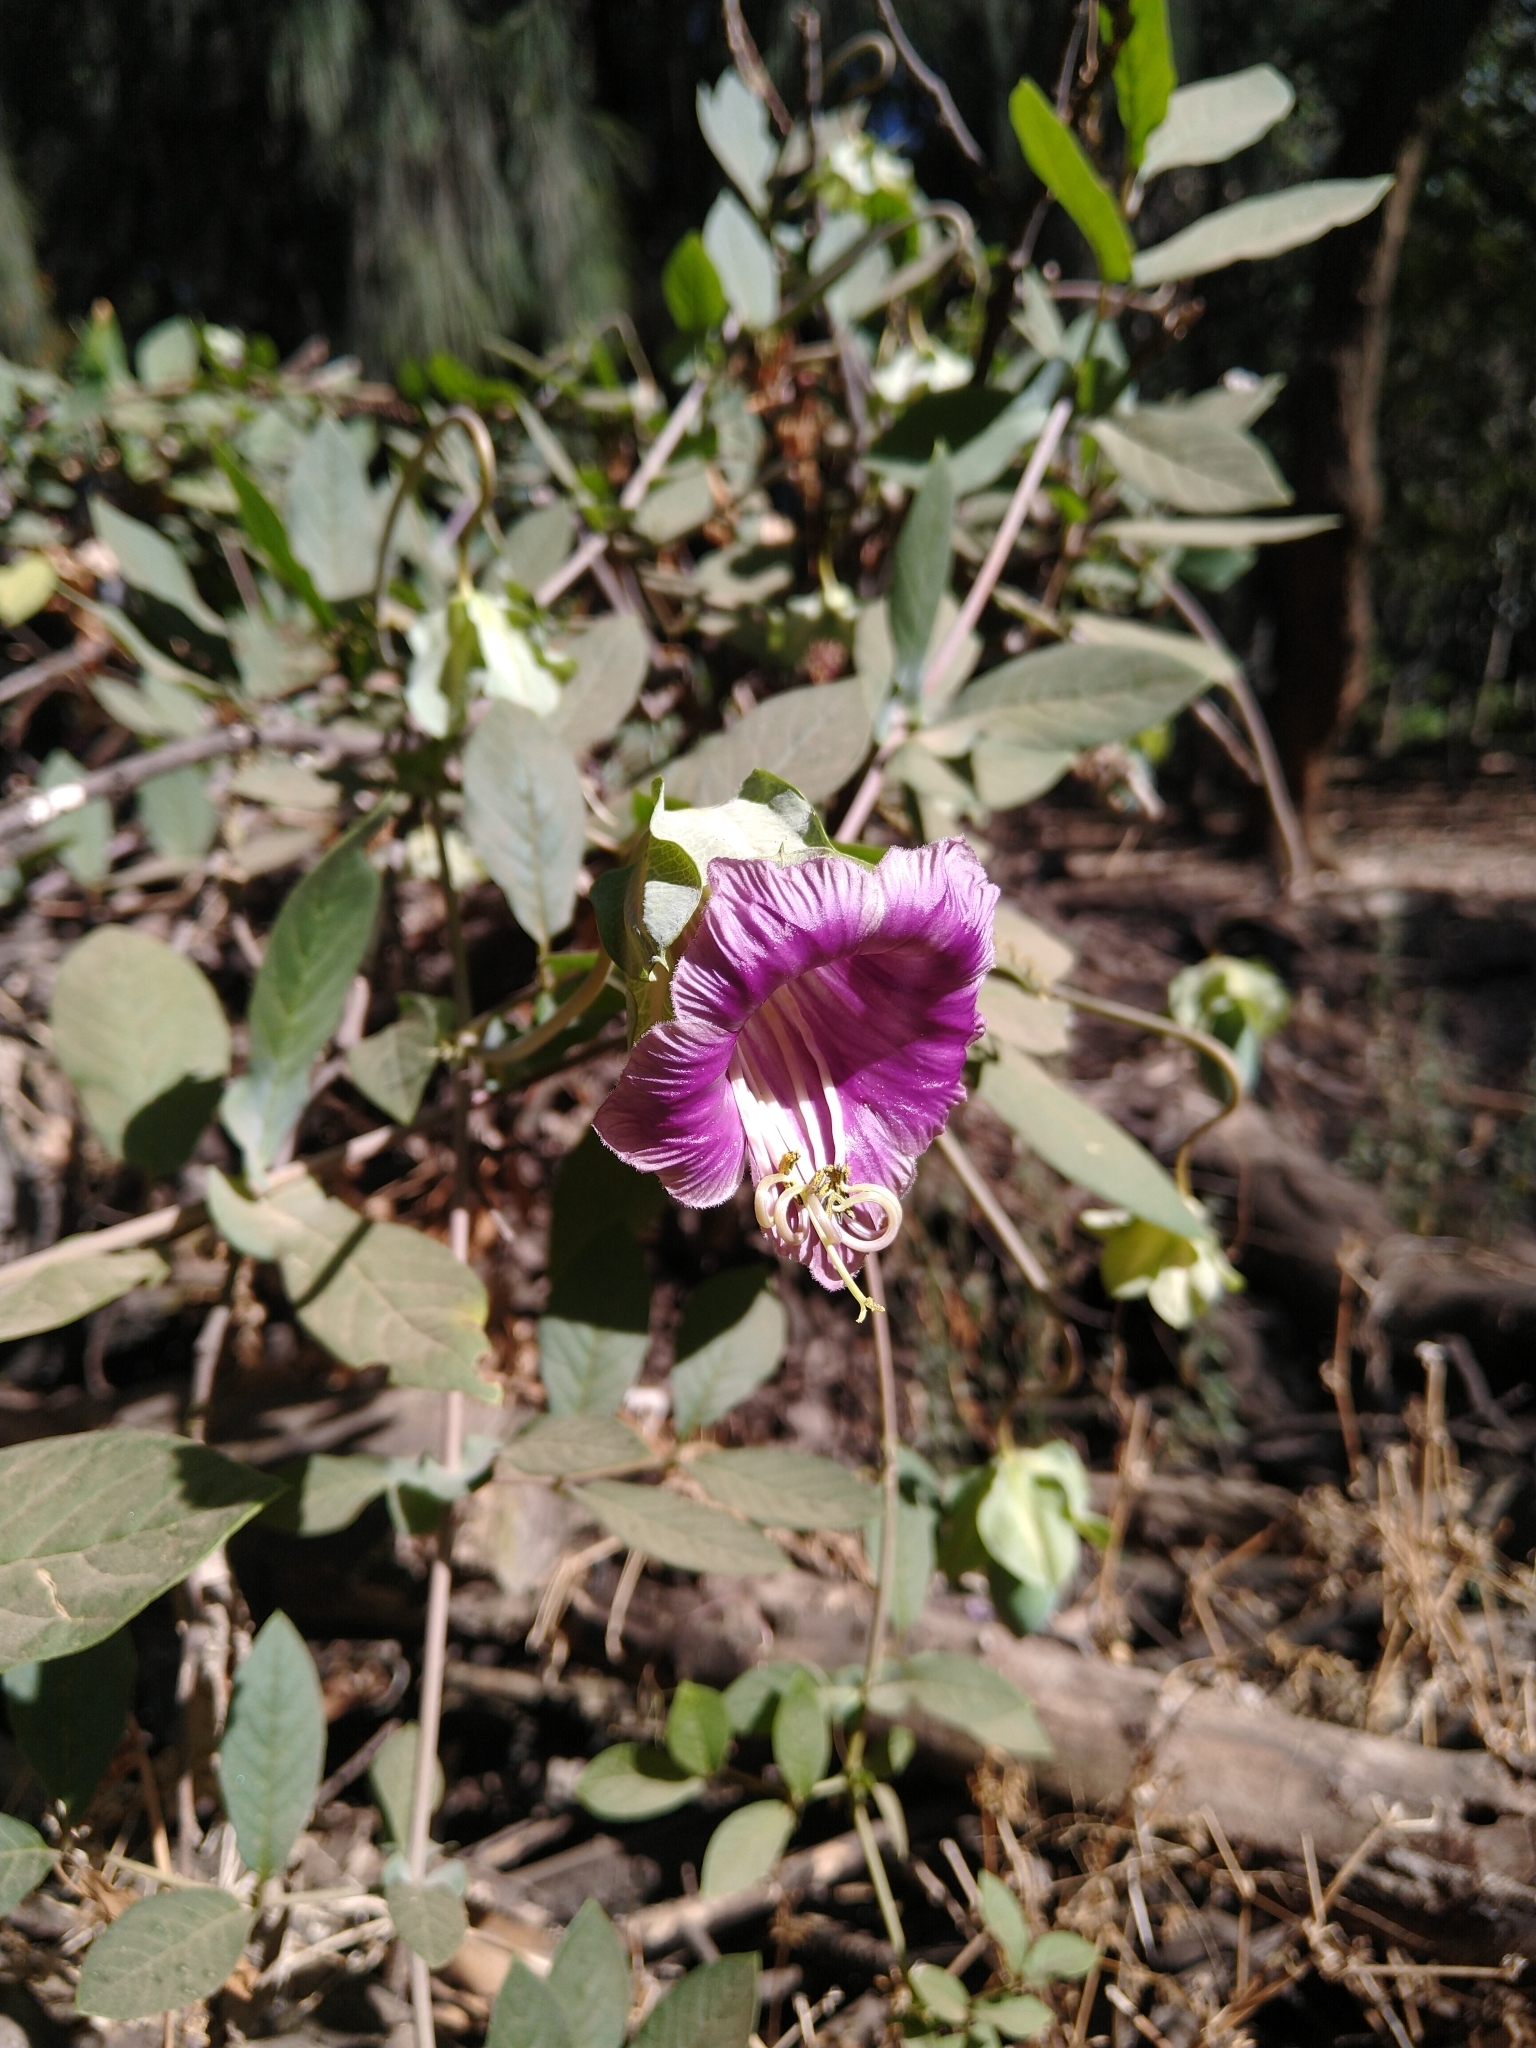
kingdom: Plantae
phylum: Tracheophyta
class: Magnoliopsida
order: Ericales
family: Polemoniaceae
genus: Cobaea
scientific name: Cobaea scandens
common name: Cup-and-saucer-vine
